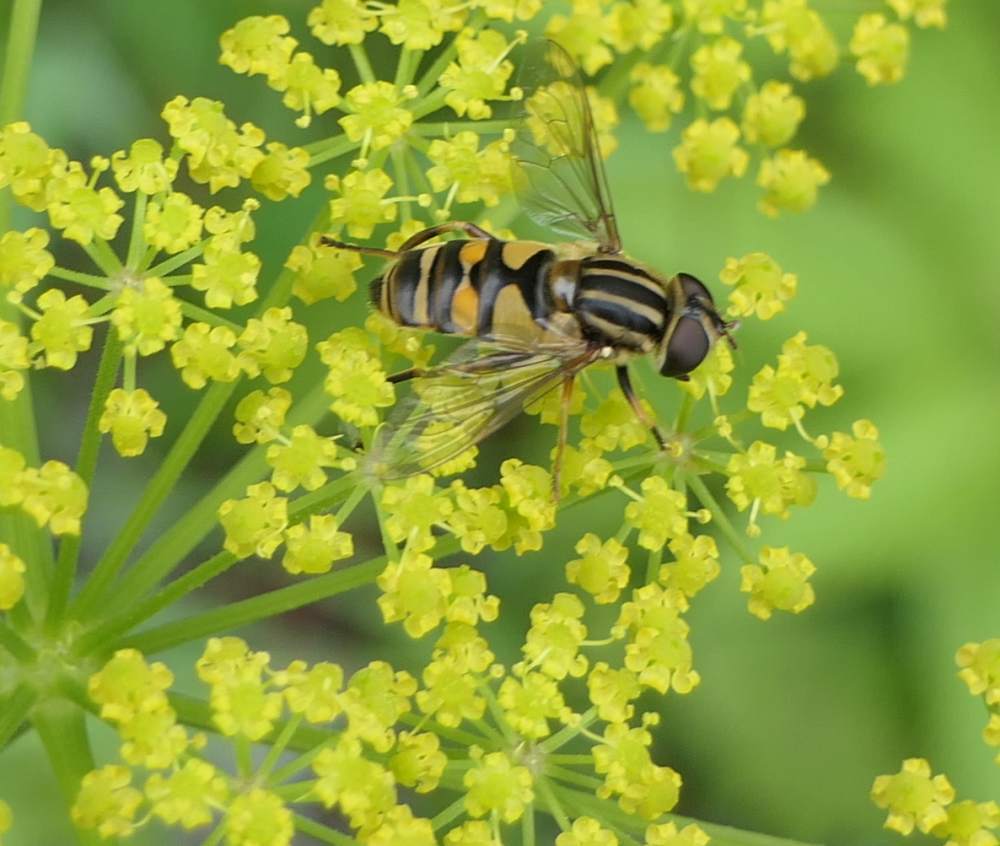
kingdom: Animalia
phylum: Arthropoda
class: Insecta
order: Diptera
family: Syrphidae
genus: Helophilus
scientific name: Helophilus fasciatus
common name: Narrow-headed marsh fly
